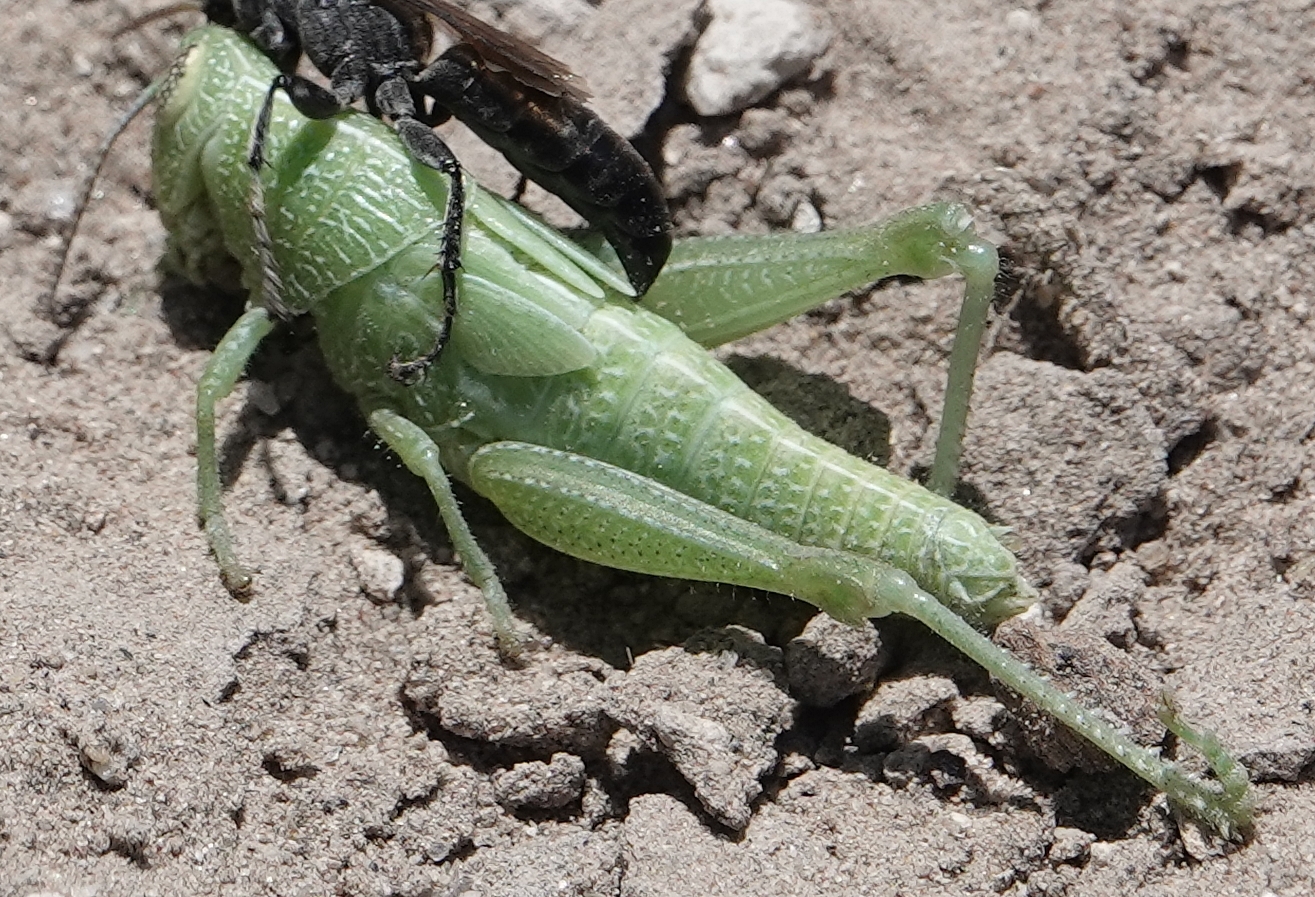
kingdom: Animalia
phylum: Arthropoda
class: Insecta
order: Orthoptera
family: Acrididae
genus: Hesperotettix
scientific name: Hesperotettix speciosus
